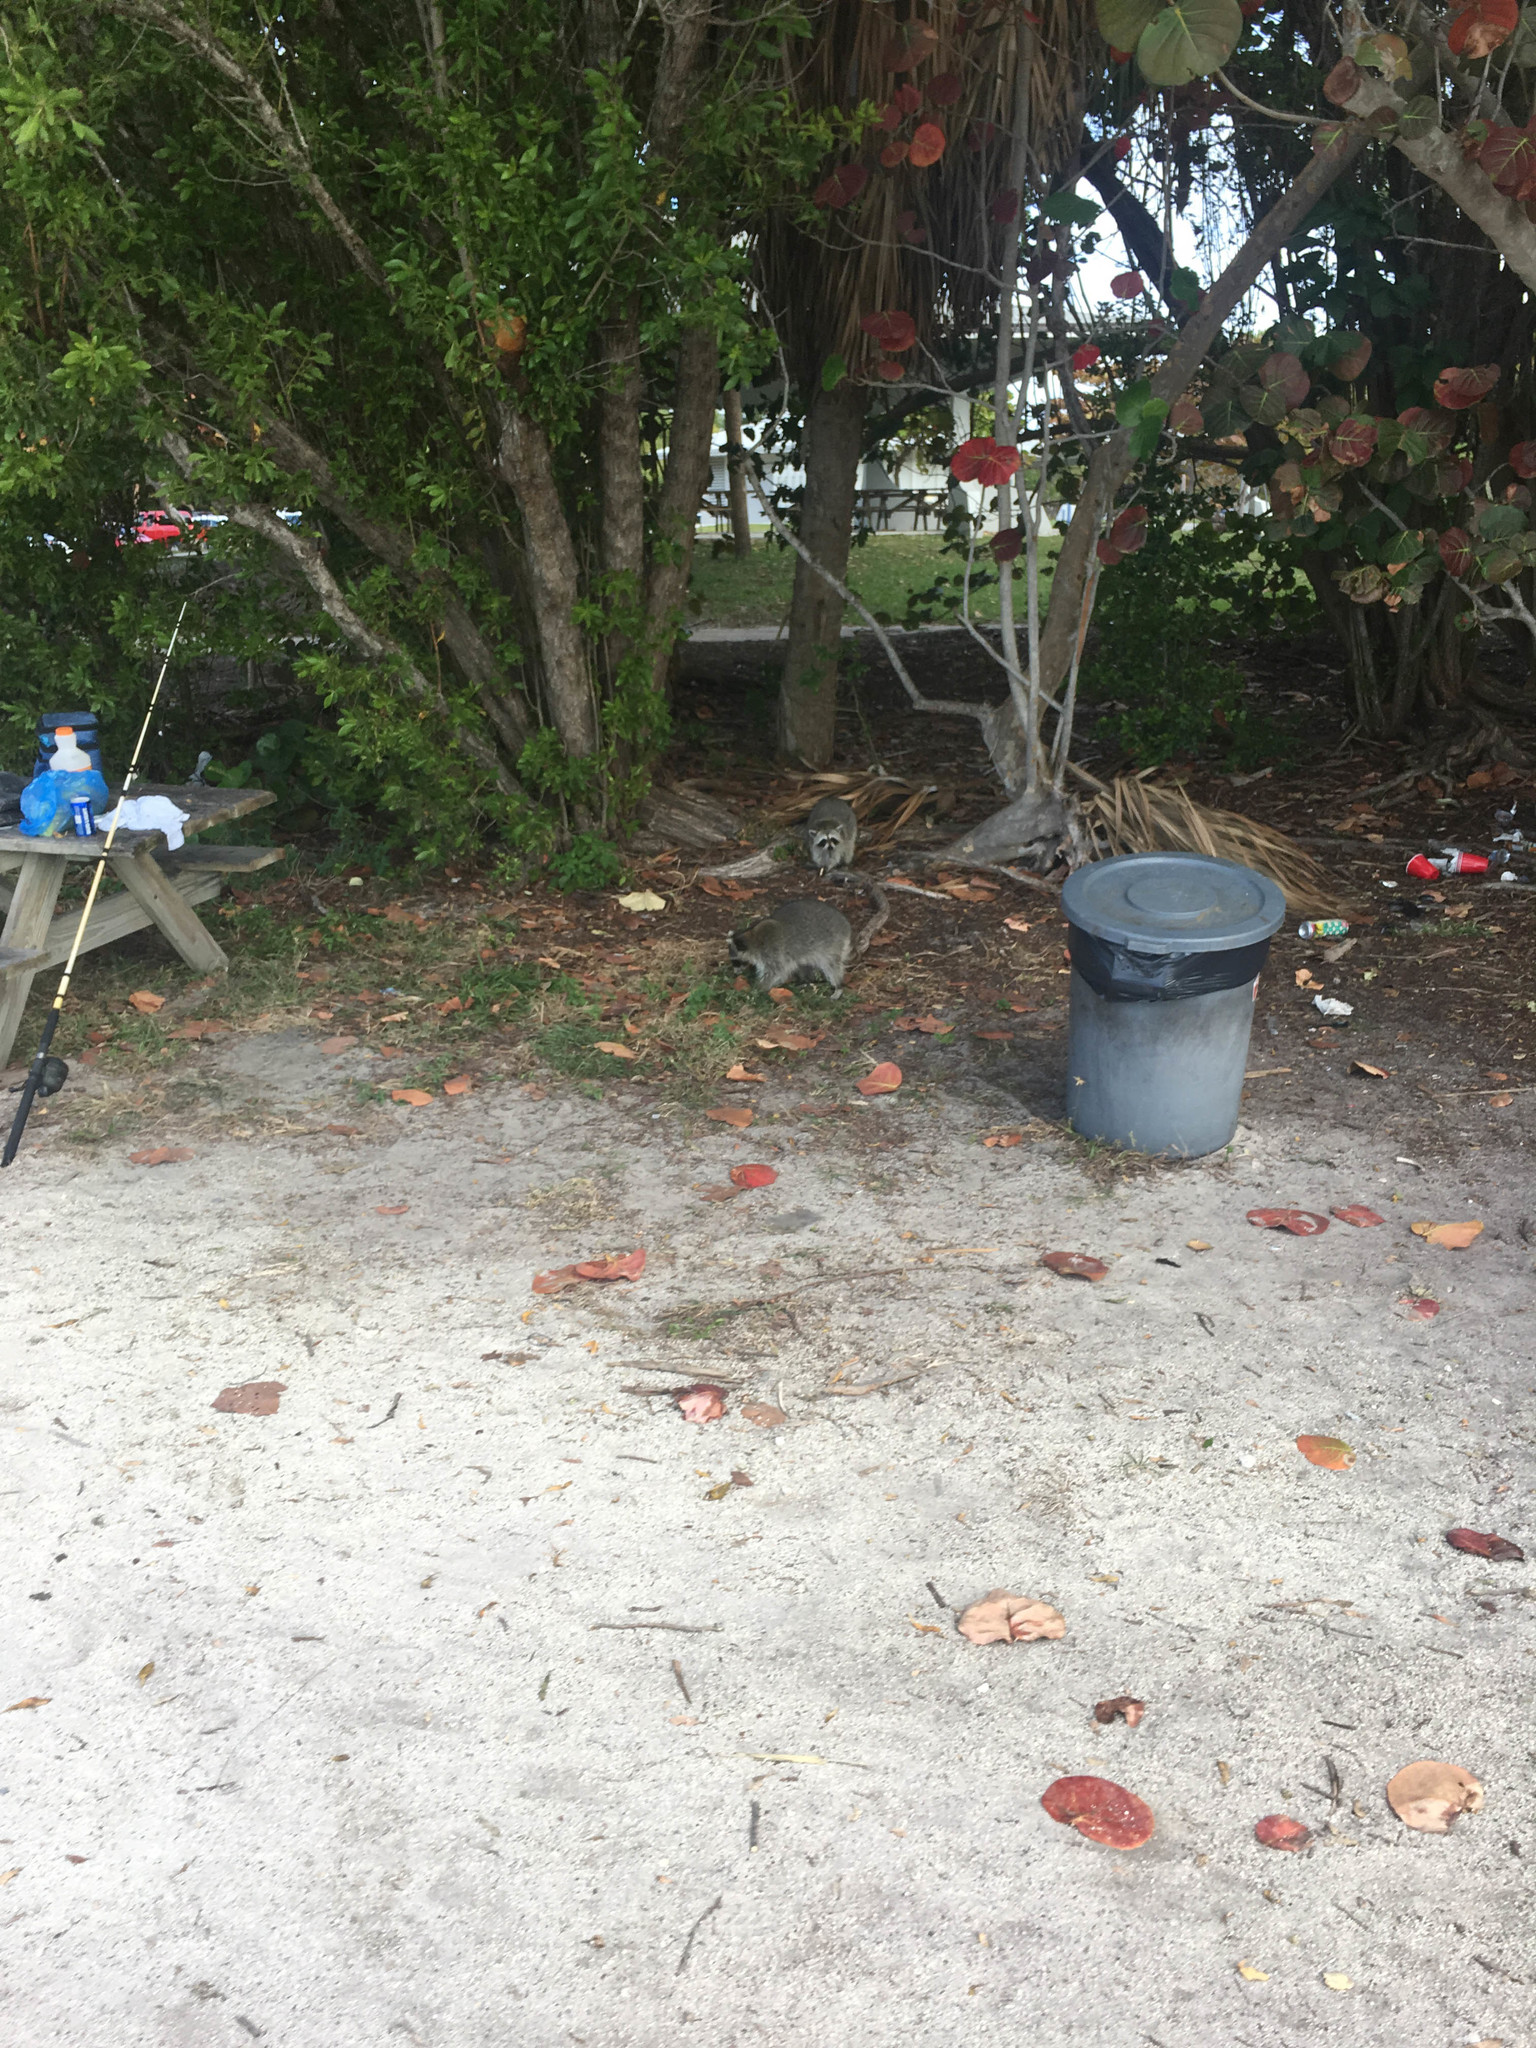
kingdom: Animalia
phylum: Chordata
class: Mammalia
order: Carnivora
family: Procyonidae
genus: Procyon
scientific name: Procyon lotor
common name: Raccoon
